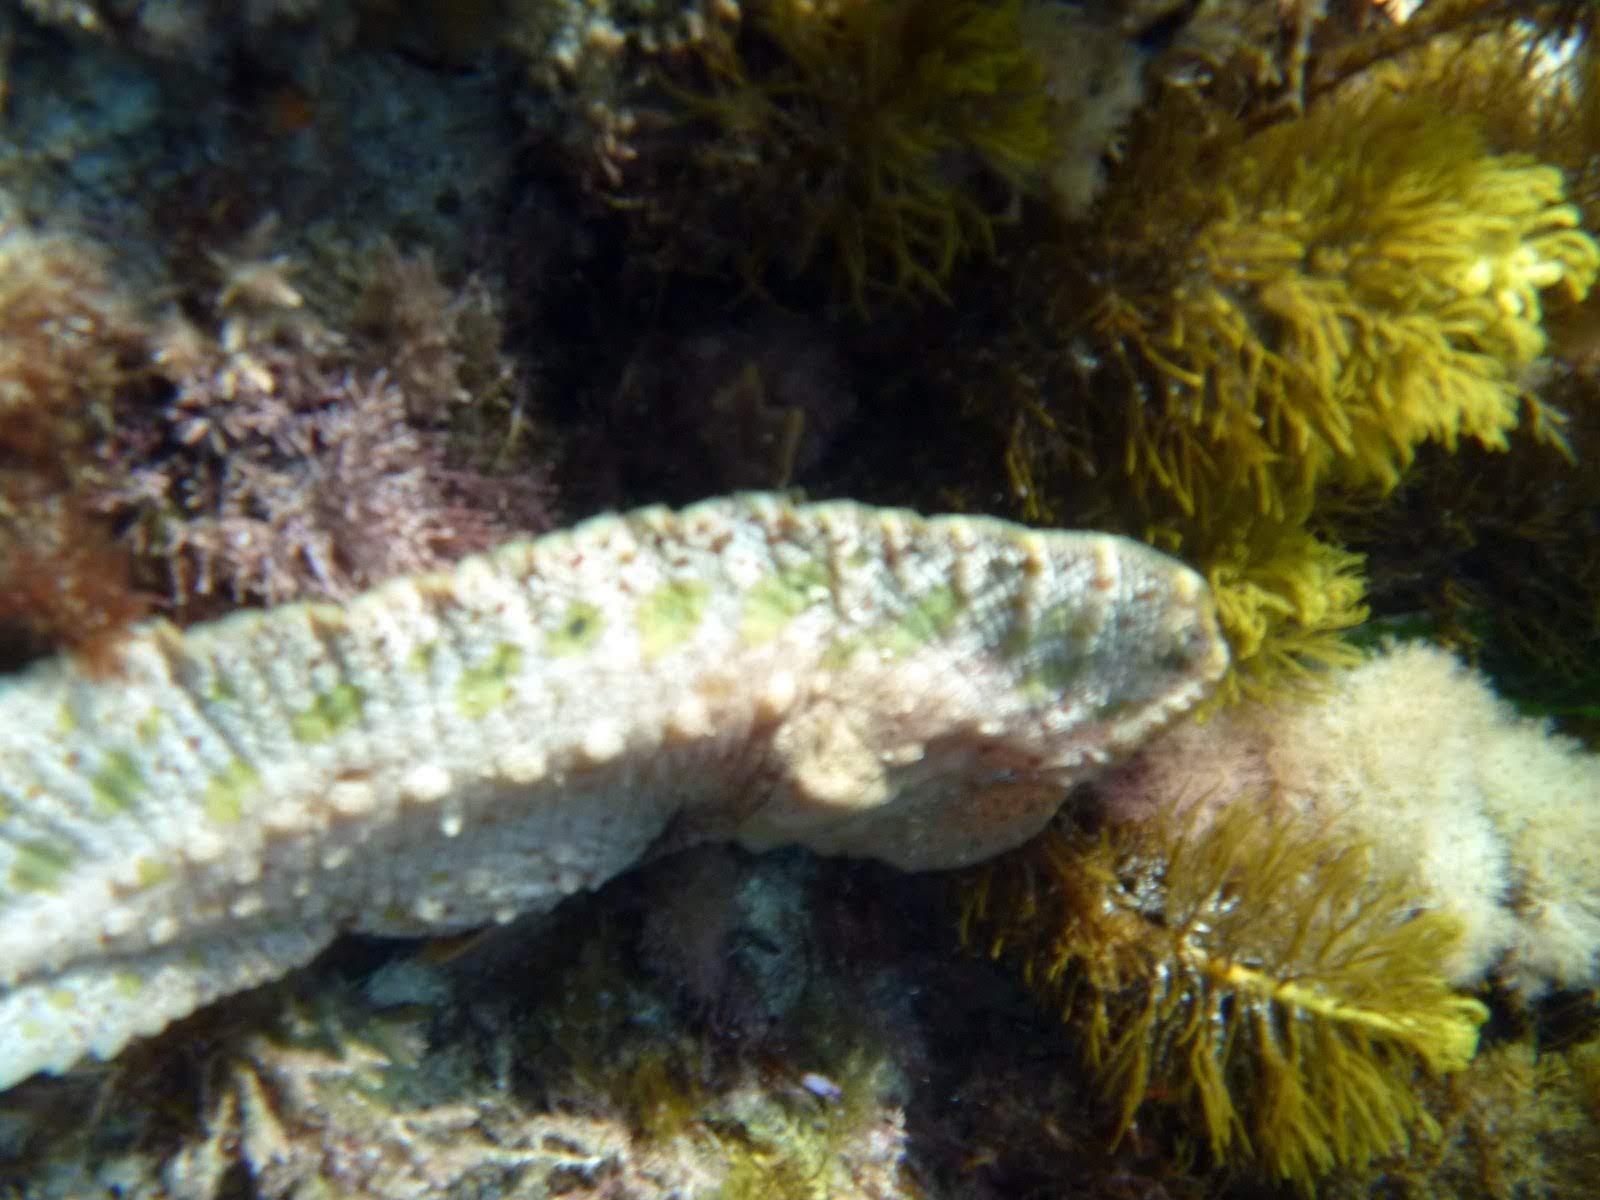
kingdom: Animalia
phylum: Chordata
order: Scorpaeniformes
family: Pataecidae
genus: Aetapcus
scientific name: Aetapcus maculatus
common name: Warty prowfish
